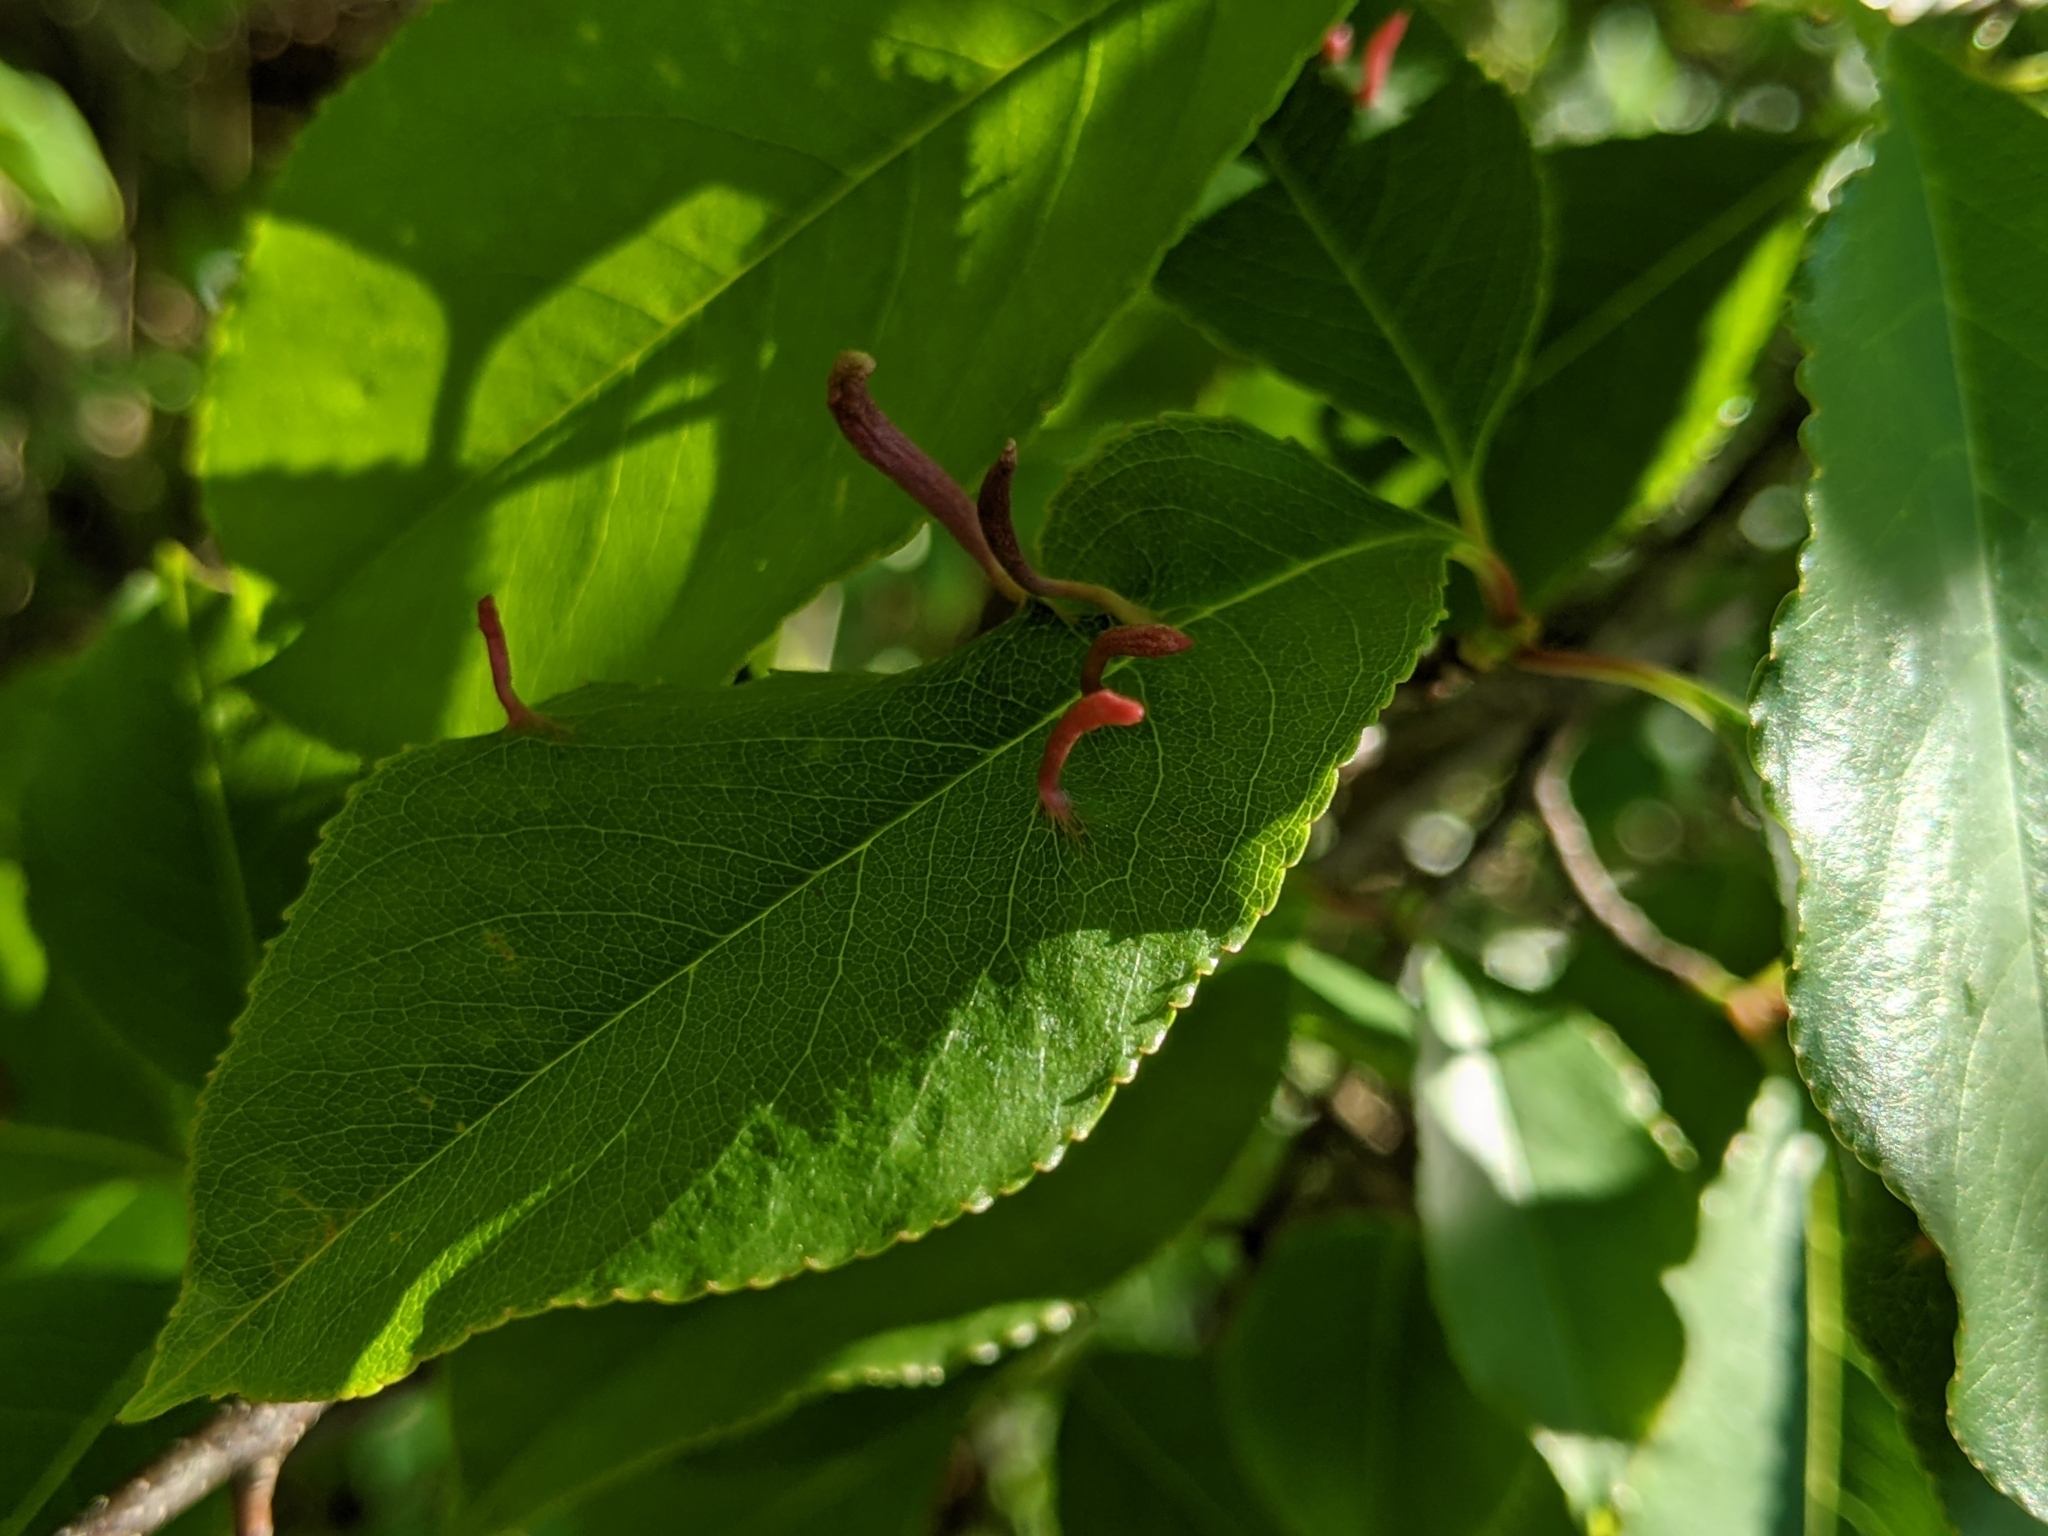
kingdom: Animalia
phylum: Arthropoda
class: Arachnida
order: Trombidiformes
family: Eriophyidae
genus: Eriophyes
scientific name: Eriophyes
